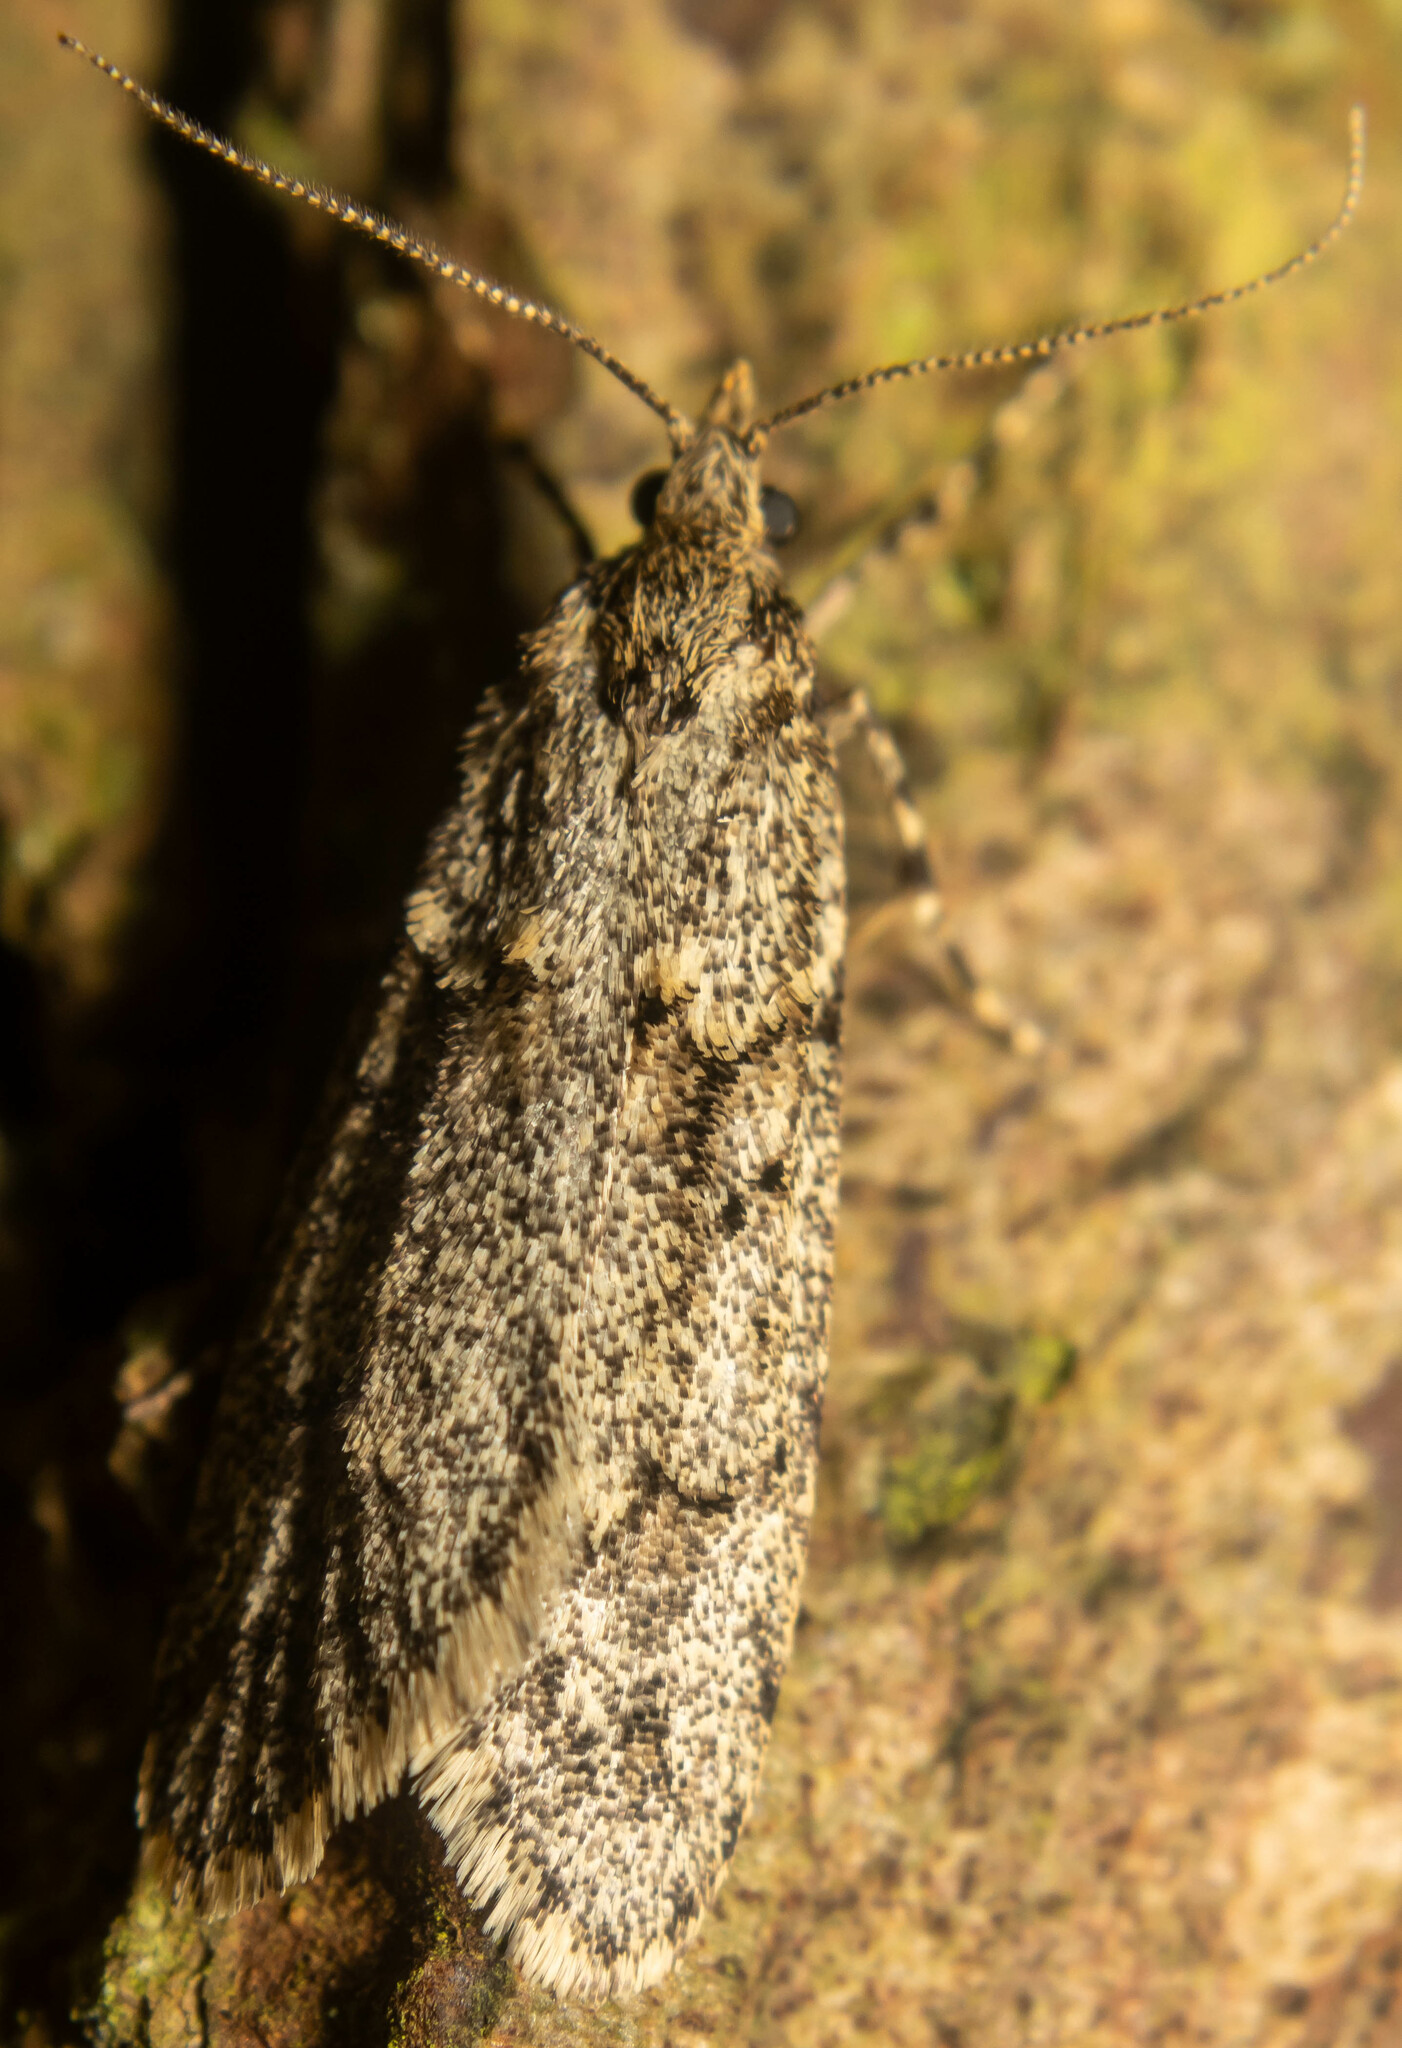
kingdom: Animalia
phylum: Arthropoda
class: Insecta
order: Lepidoptera
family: Lypusidae
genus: Diurnea
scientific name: Diurnea fagella
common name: March tubic
